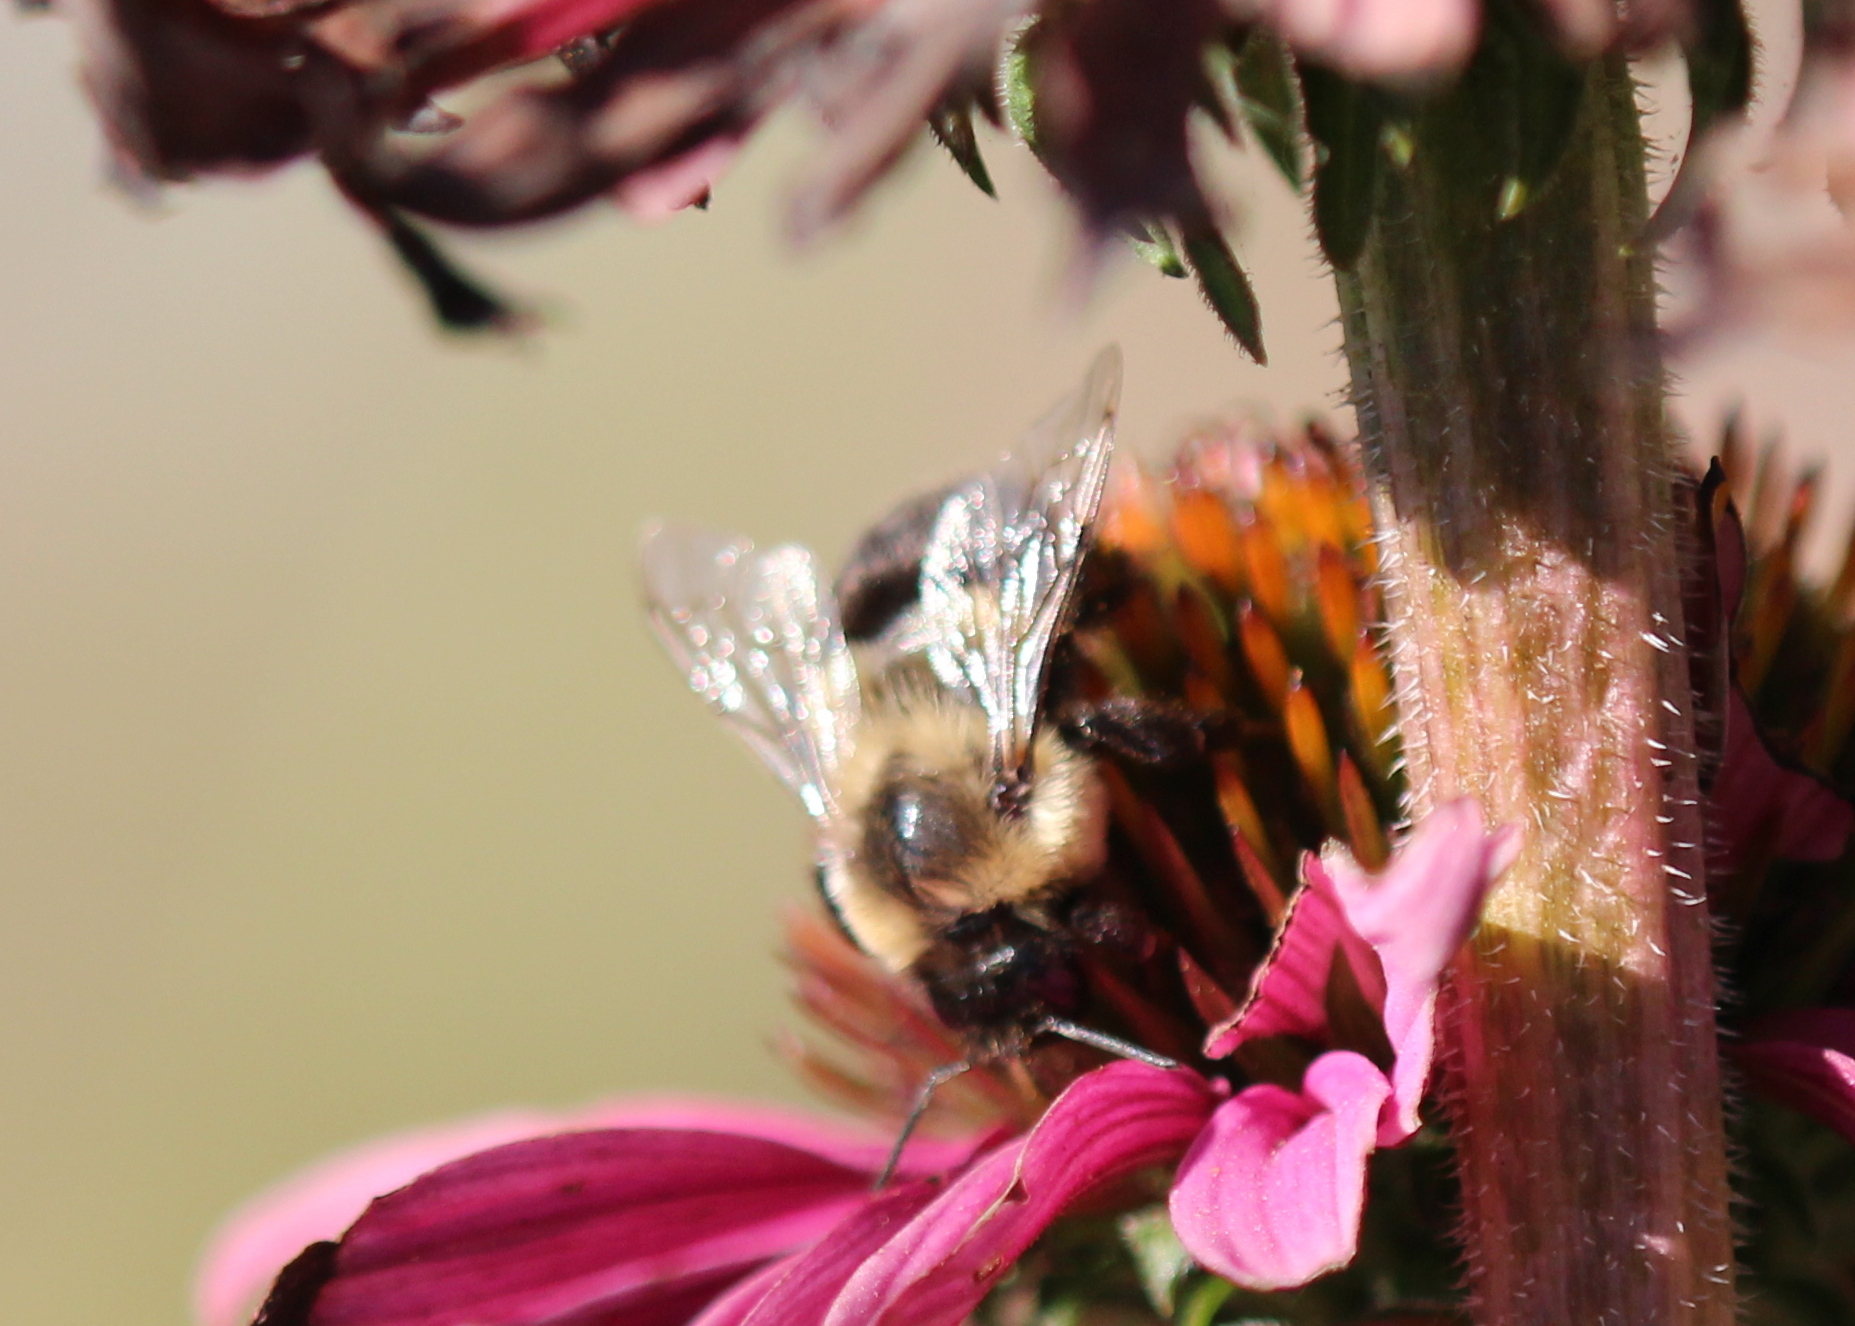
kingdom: Animalia
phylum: Arthropoda
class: Insecta
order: Hymenoptera
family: Apidae
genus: Bombus
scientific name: Bombus impatiens
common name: Common eastern bumble bee
